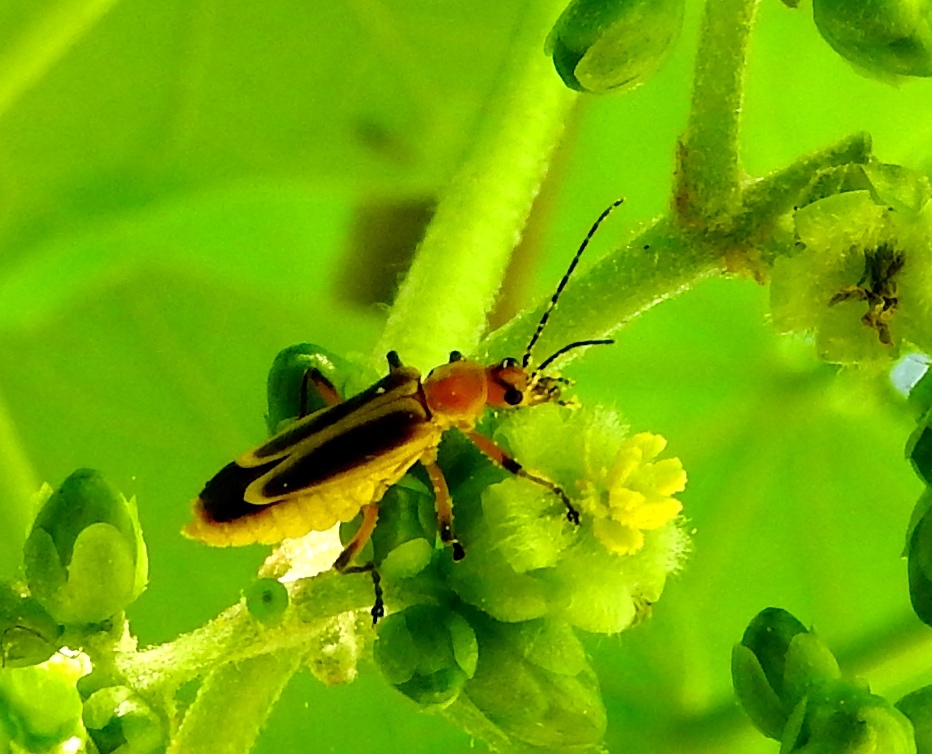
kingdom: Animalia
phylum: Arthropoda
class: Insecta
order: Coleoptera
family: Cantharidae
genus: Chauliognathus
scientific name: Chauliognathus
